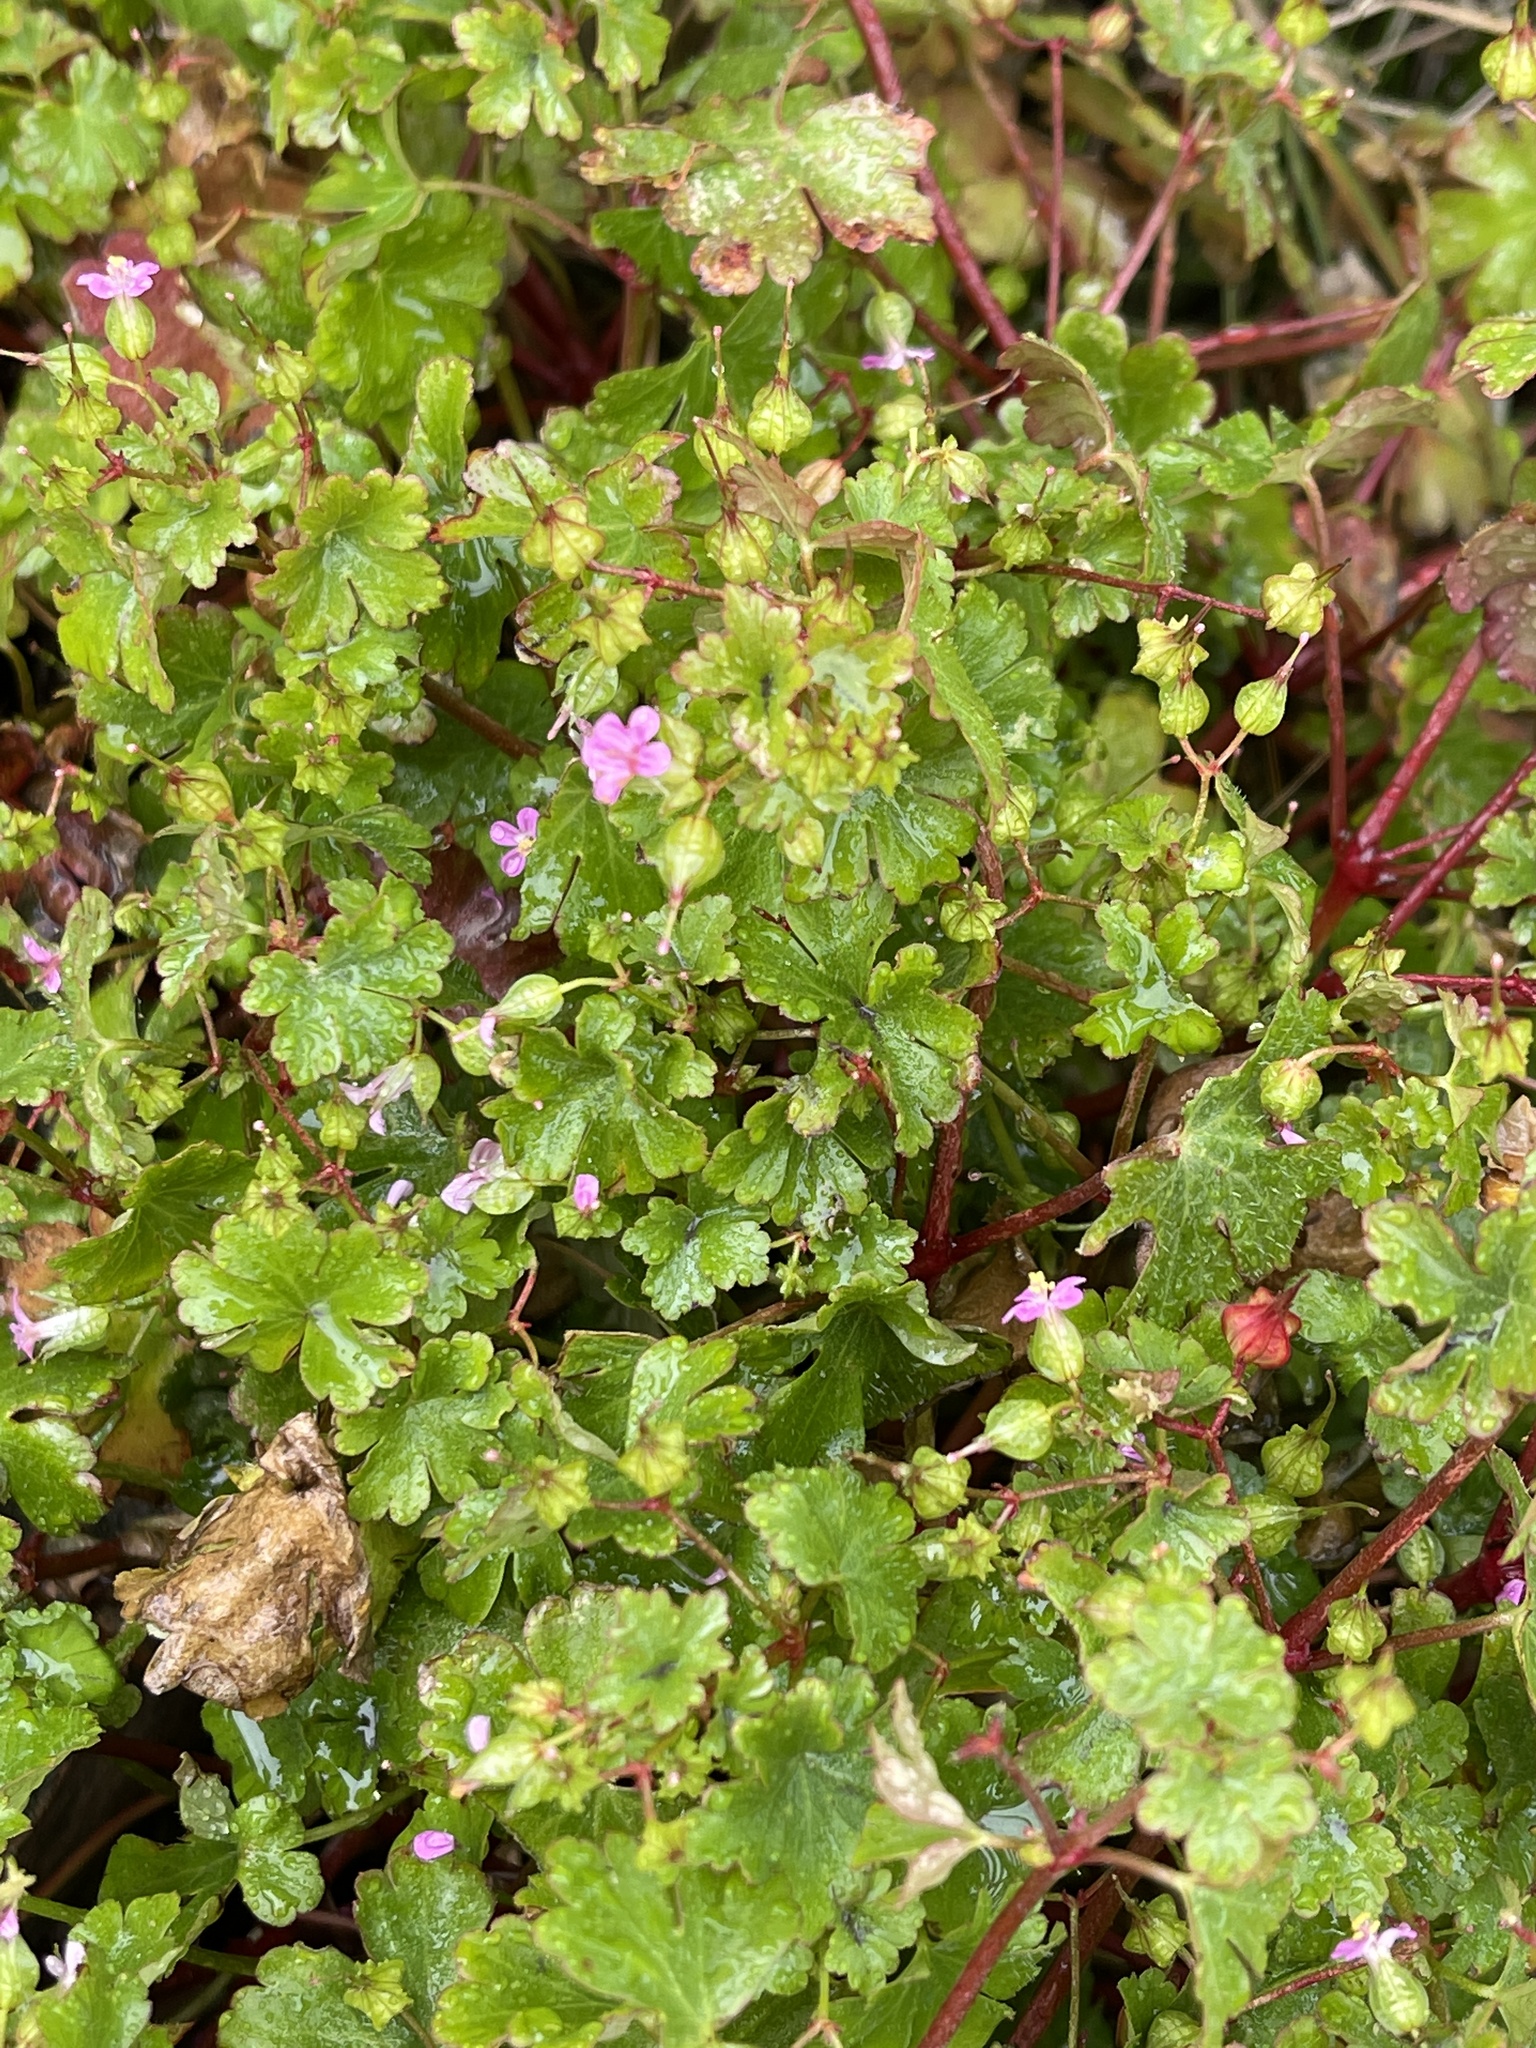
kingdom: Plantae
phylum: Tracheophyta
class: Magnoliopsida
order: Geraniales
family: Geraniaceae
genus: Geranium
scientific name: Geranium lucidum
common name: Shining crane's-bill
